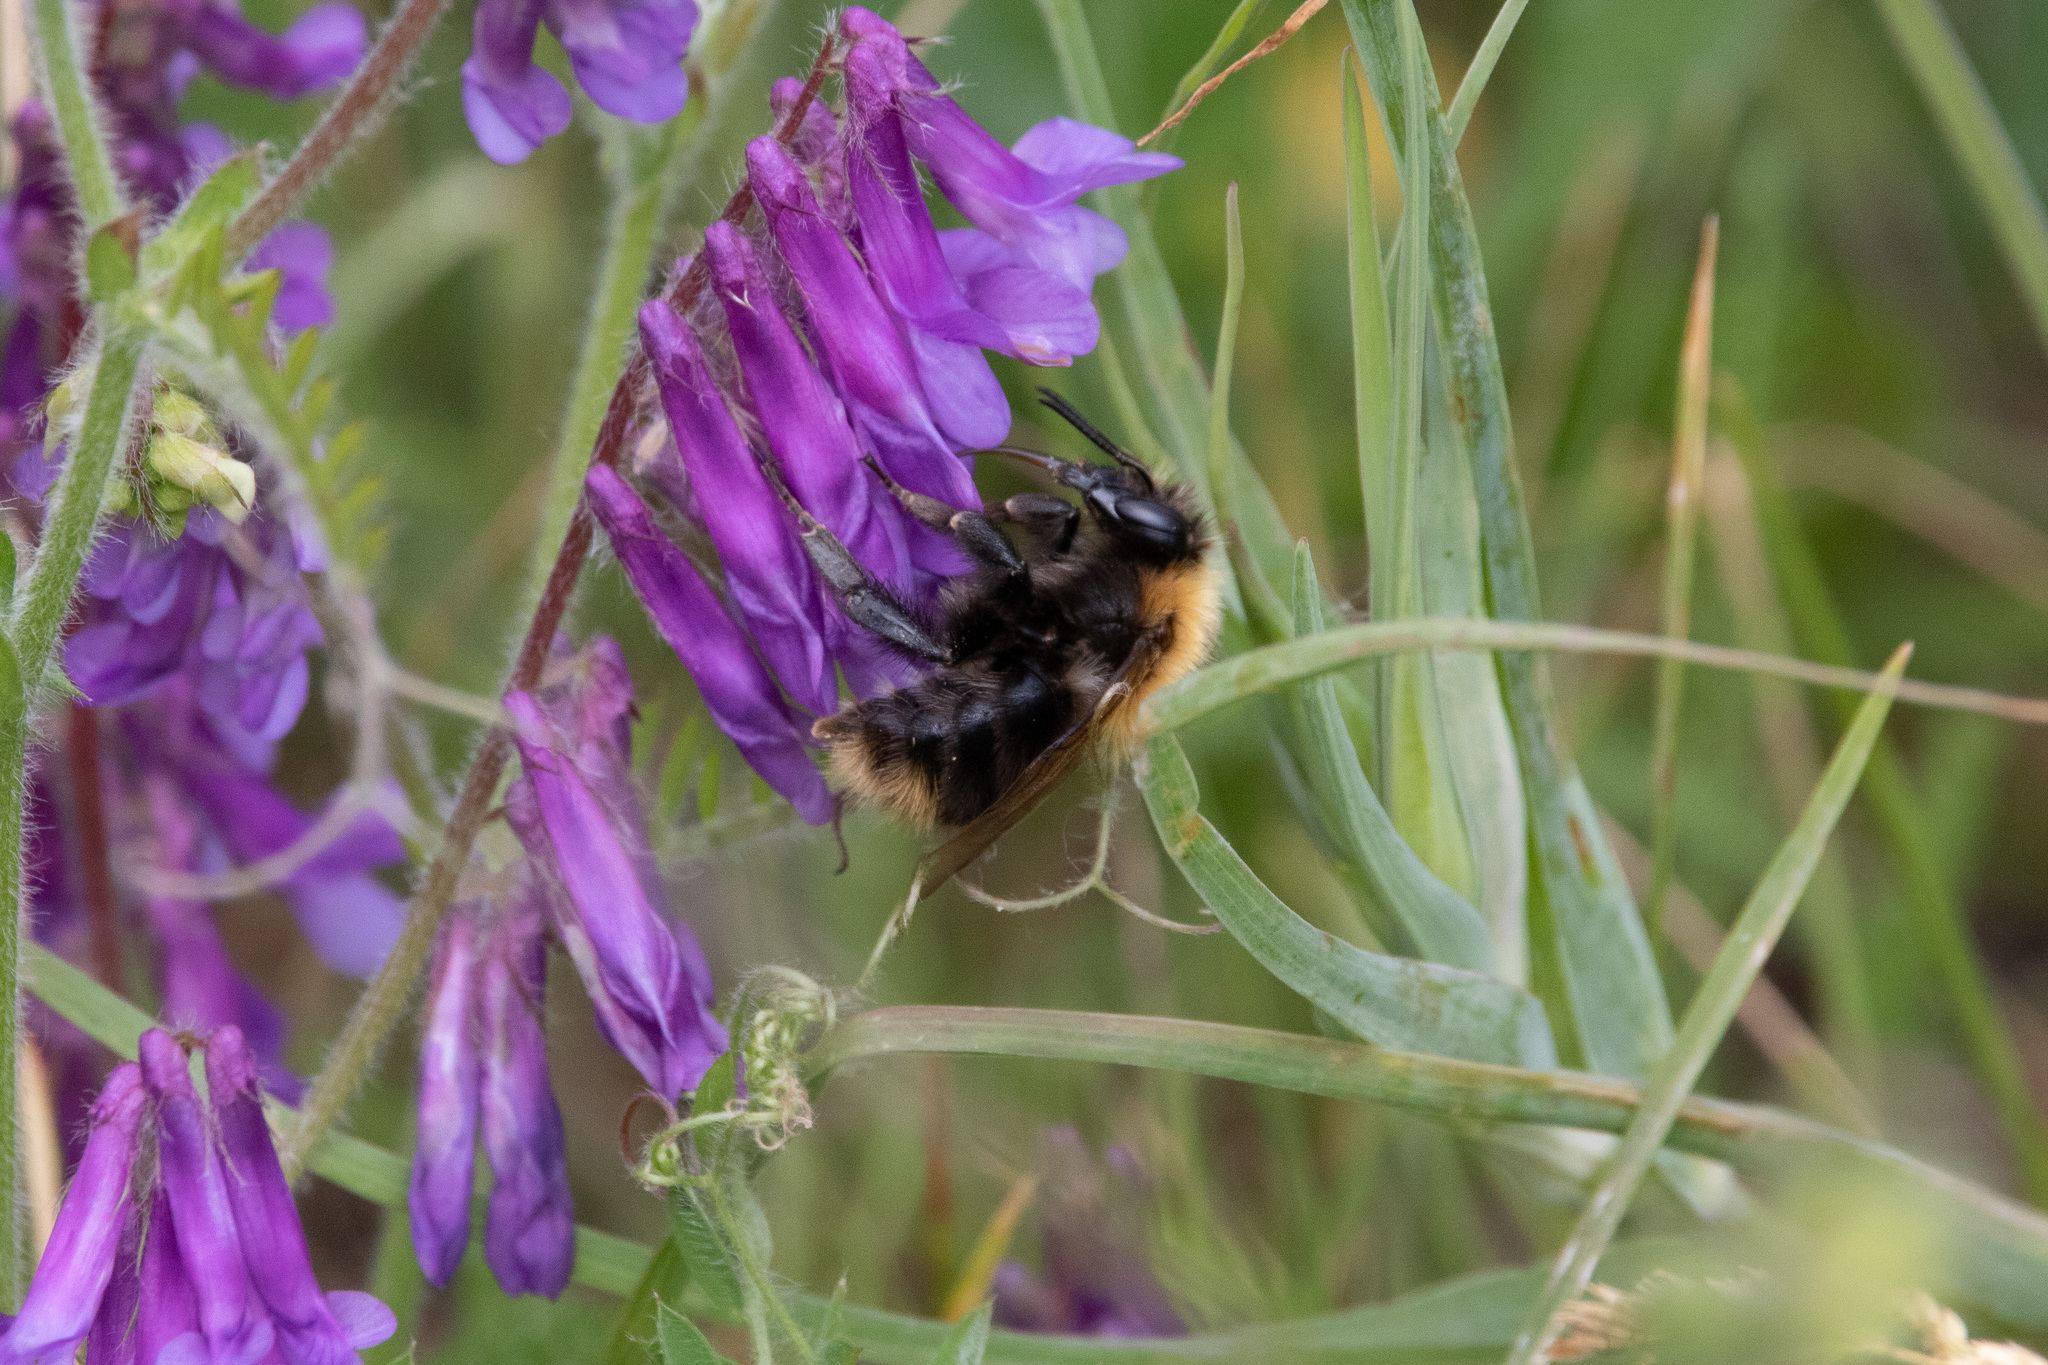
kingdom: Animalia
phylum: Arthropoda
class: Insecta
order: Hymenoptera
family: Apidae
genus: Bombus
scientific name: Bombus pascuorum
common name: Common carder bee
